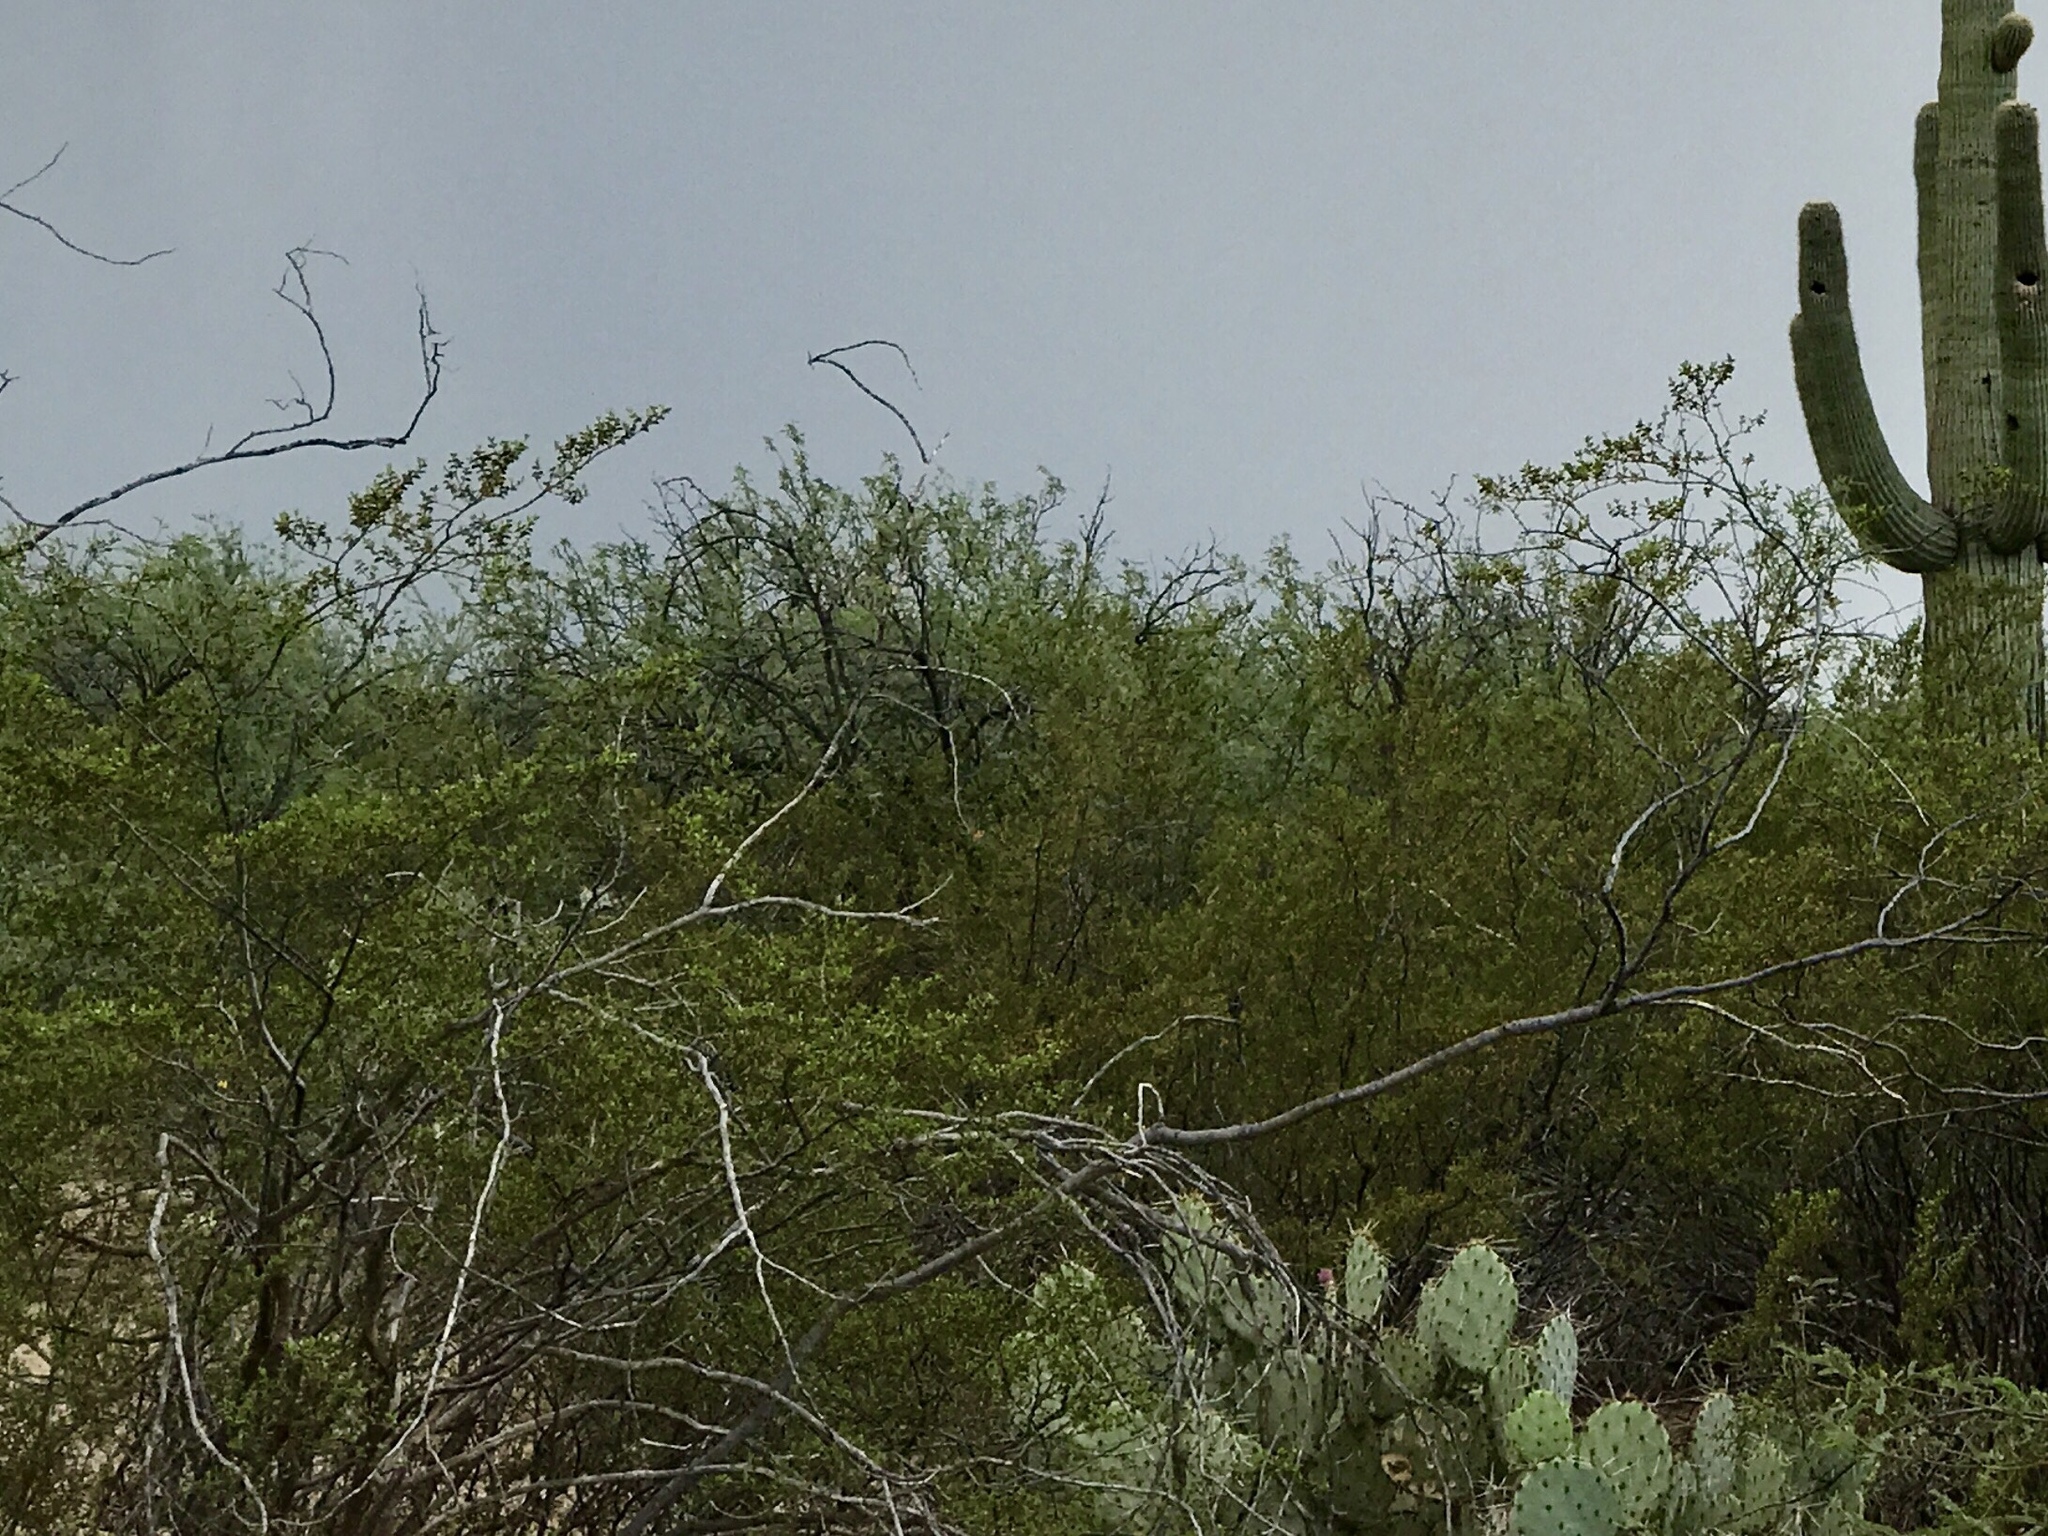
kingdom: Plantae
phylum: Tracheophyta
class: Magnoliopsida
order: Zygophyllales
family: Zygophyllaceae
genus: Larrea
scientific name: Larrea tridentata
